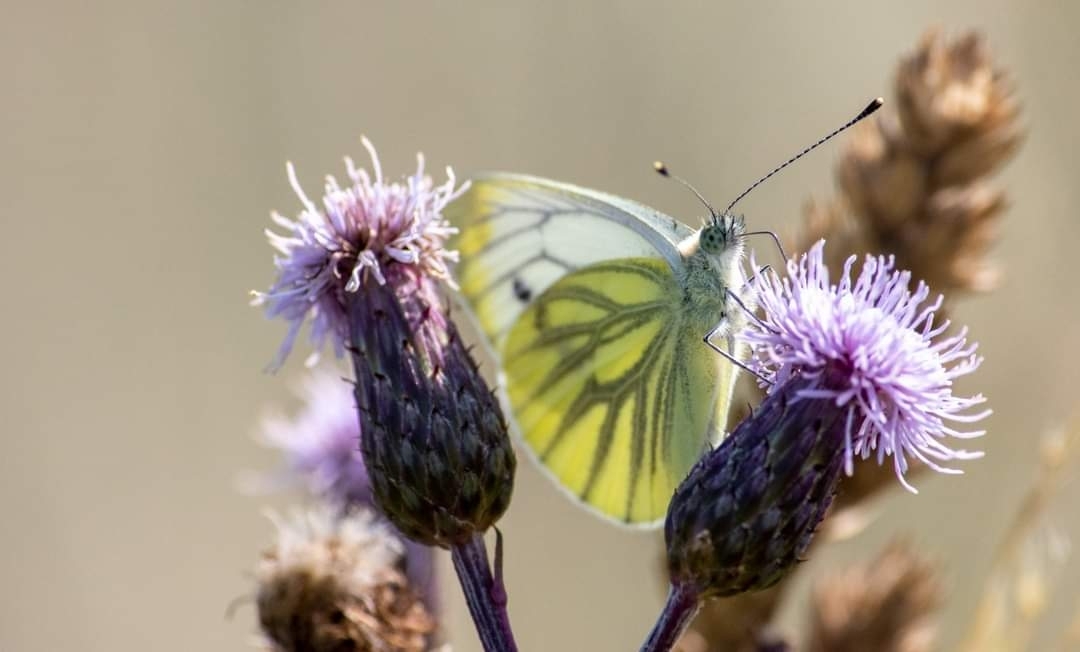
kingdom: Animalia
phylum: Arthropoda
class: Insecta
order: Lepidoptera
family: Pieridae
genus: Pieris
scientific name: Pieris napi
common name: Green-veined white
